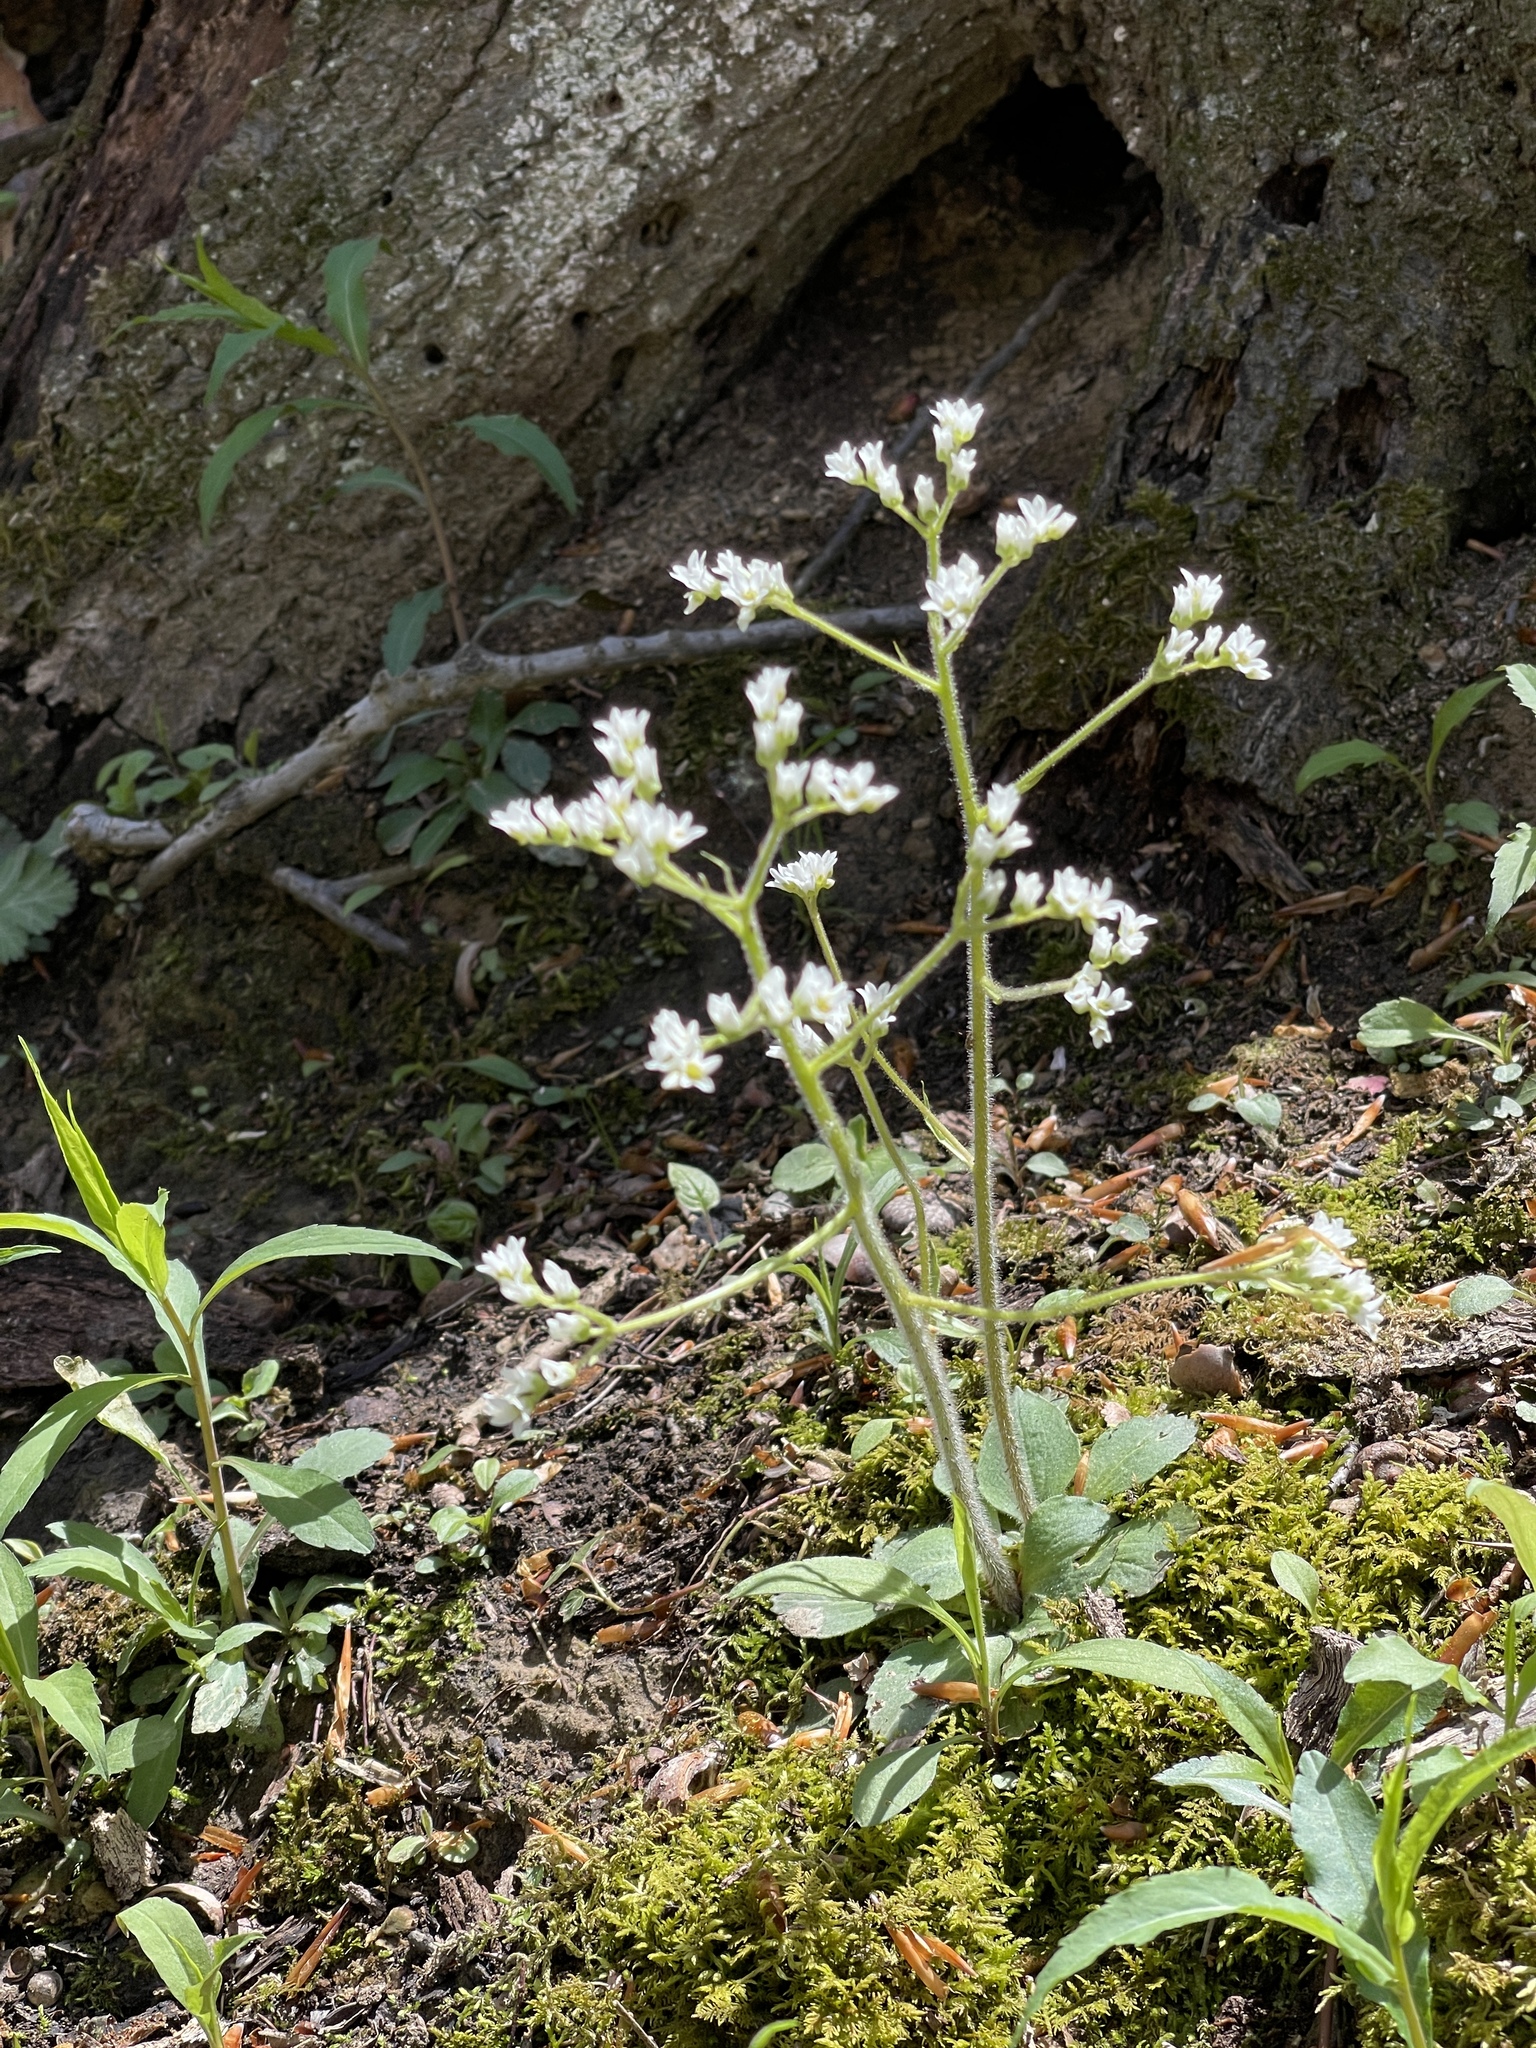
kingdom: Plantae
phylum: Tracheophyta
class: Magnoliopsida
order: Saxifragales
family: Saxifragaceae
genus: Micranthes
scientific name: Micranthes virginiensis
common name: Early saxifrage
